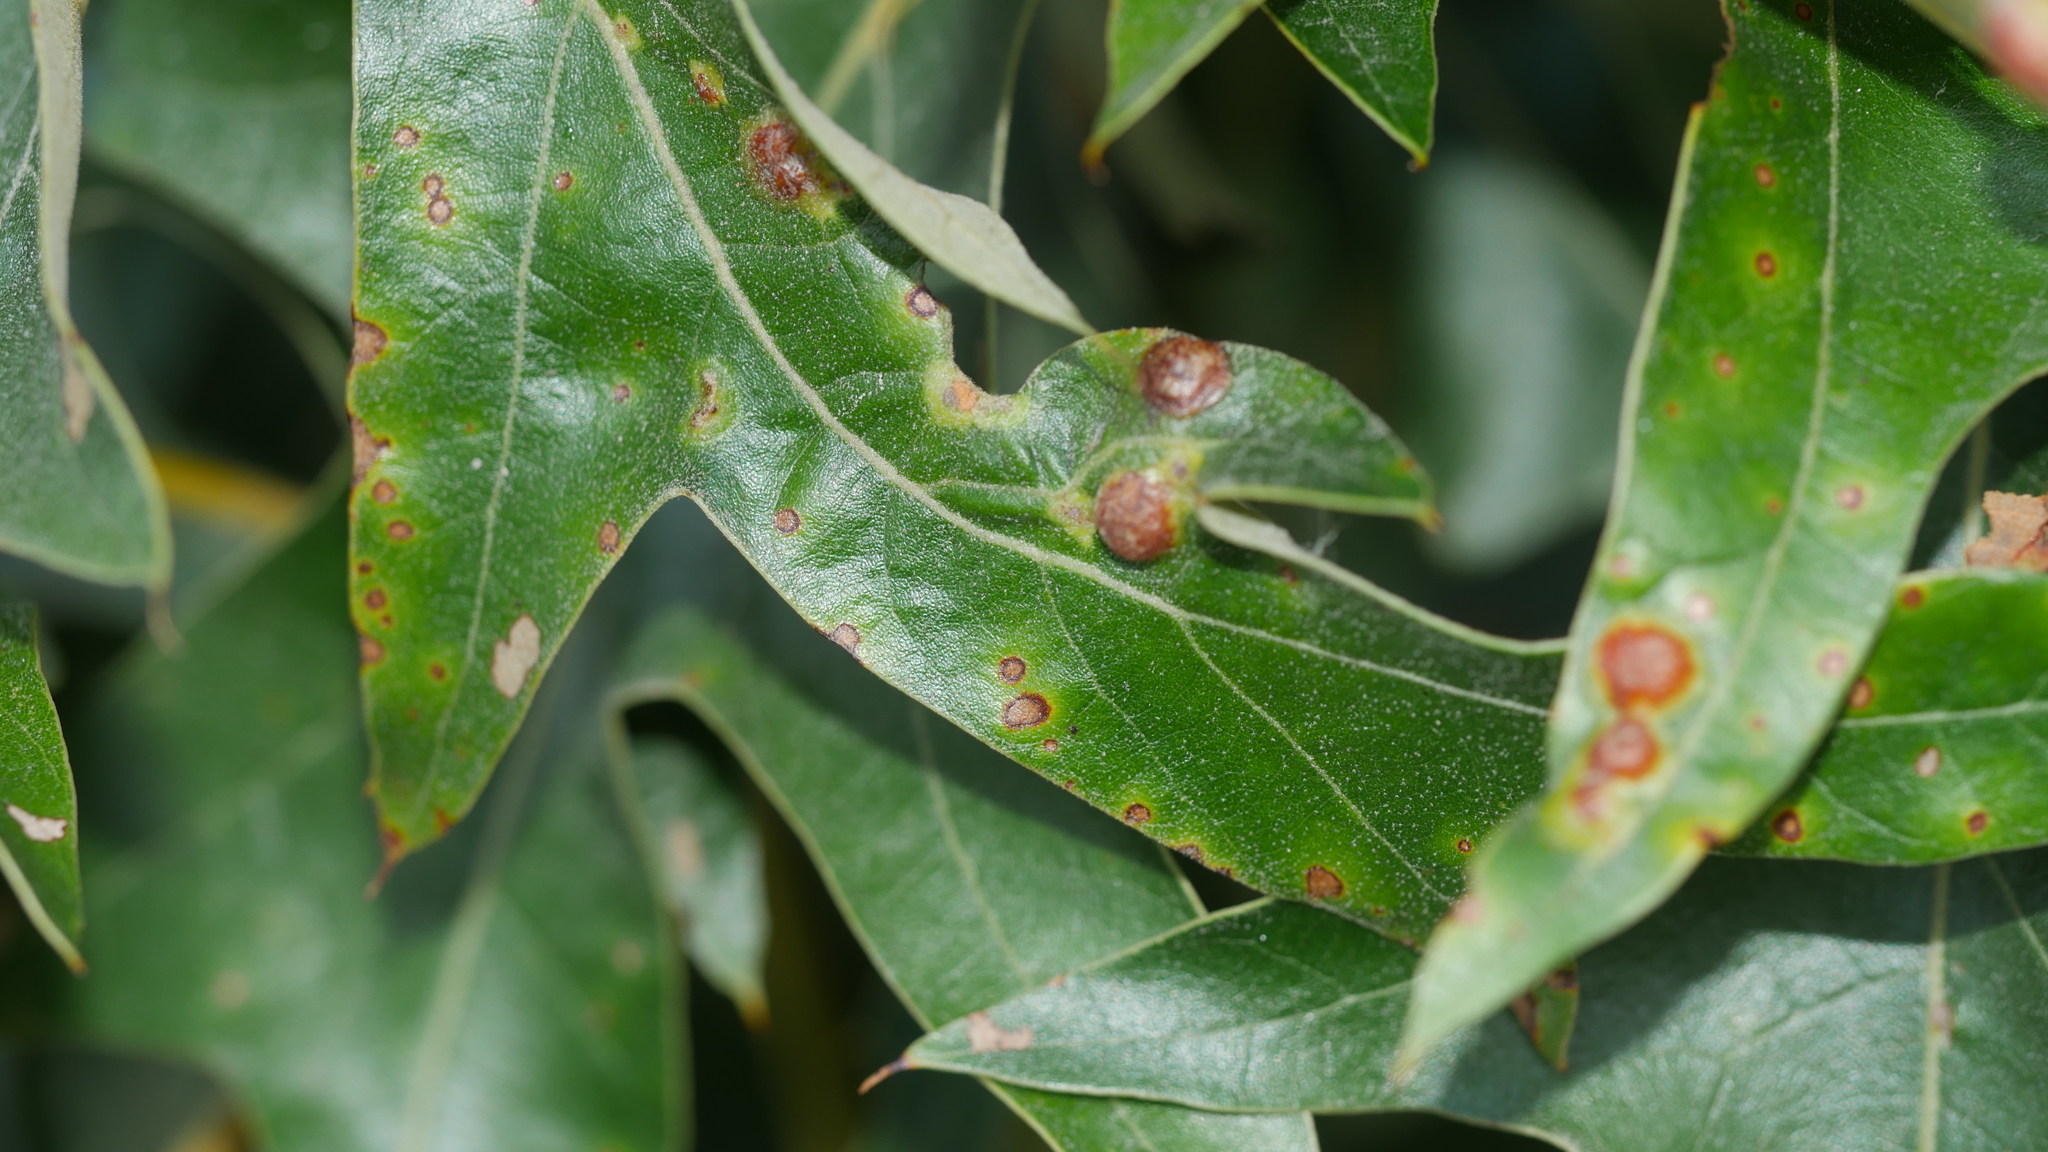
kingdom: Animalia
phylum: Arthropoda
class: Insecta
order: Diptera
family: Cecidomyiidae
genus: Polystepha
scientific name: Polystepha symmetrica
